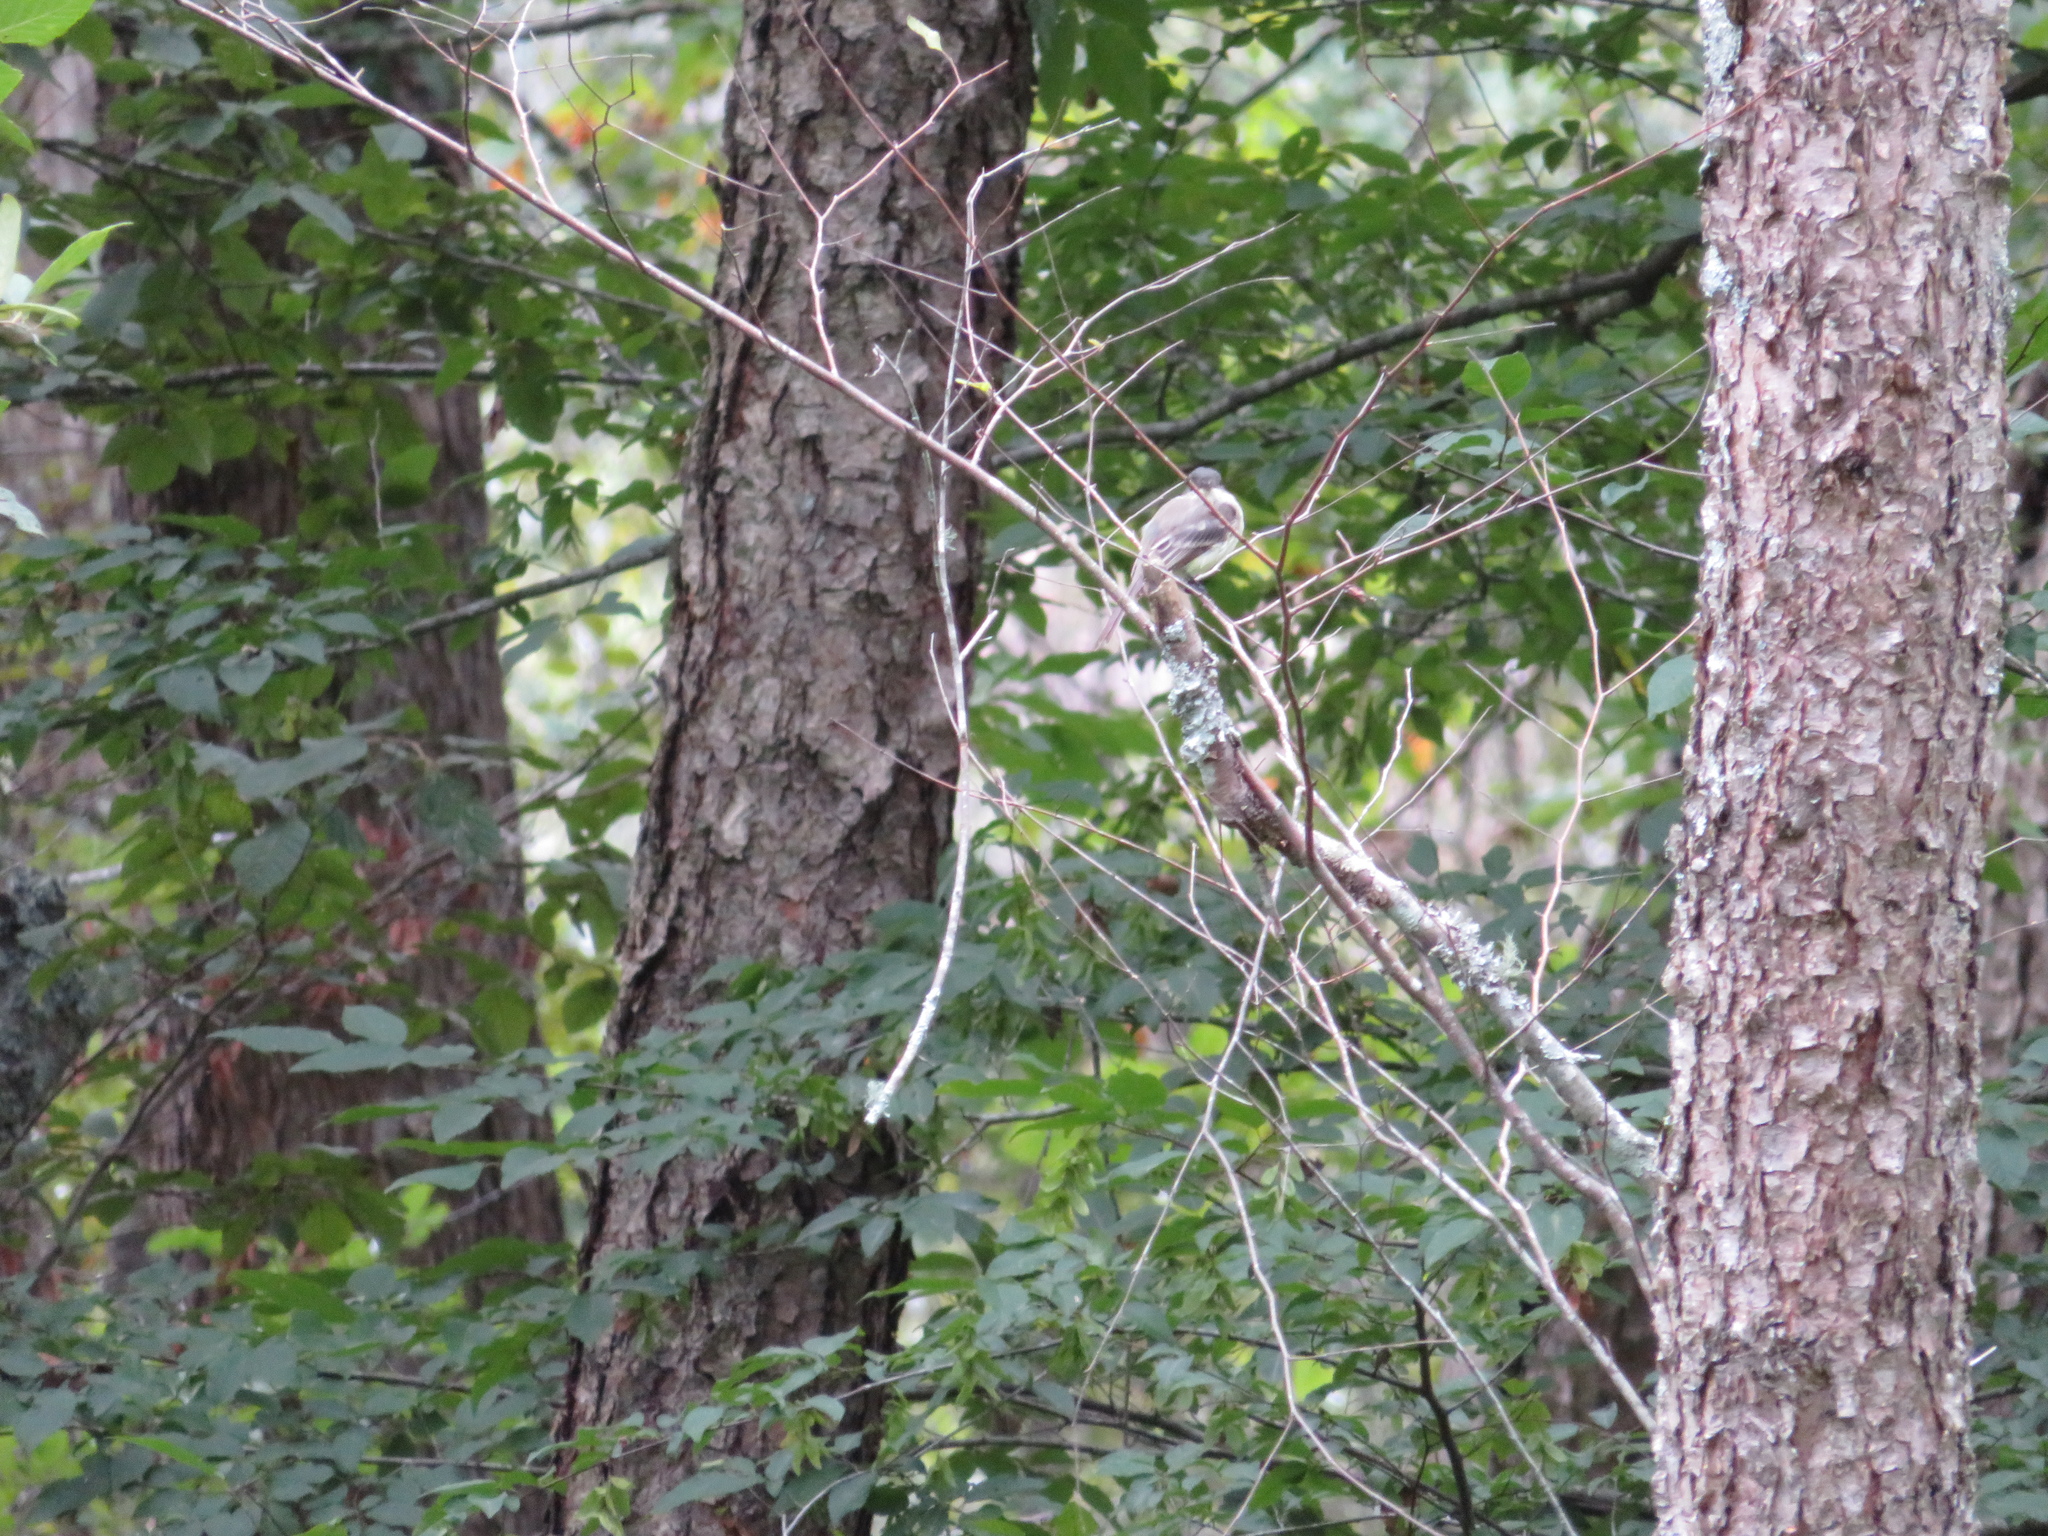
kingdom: Animalia
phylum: Chordata
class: Aves
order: Passeriformes
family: Tyrannidae
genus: Sayornis
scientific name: Sayornis phoebe
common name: Eastern phoebe
